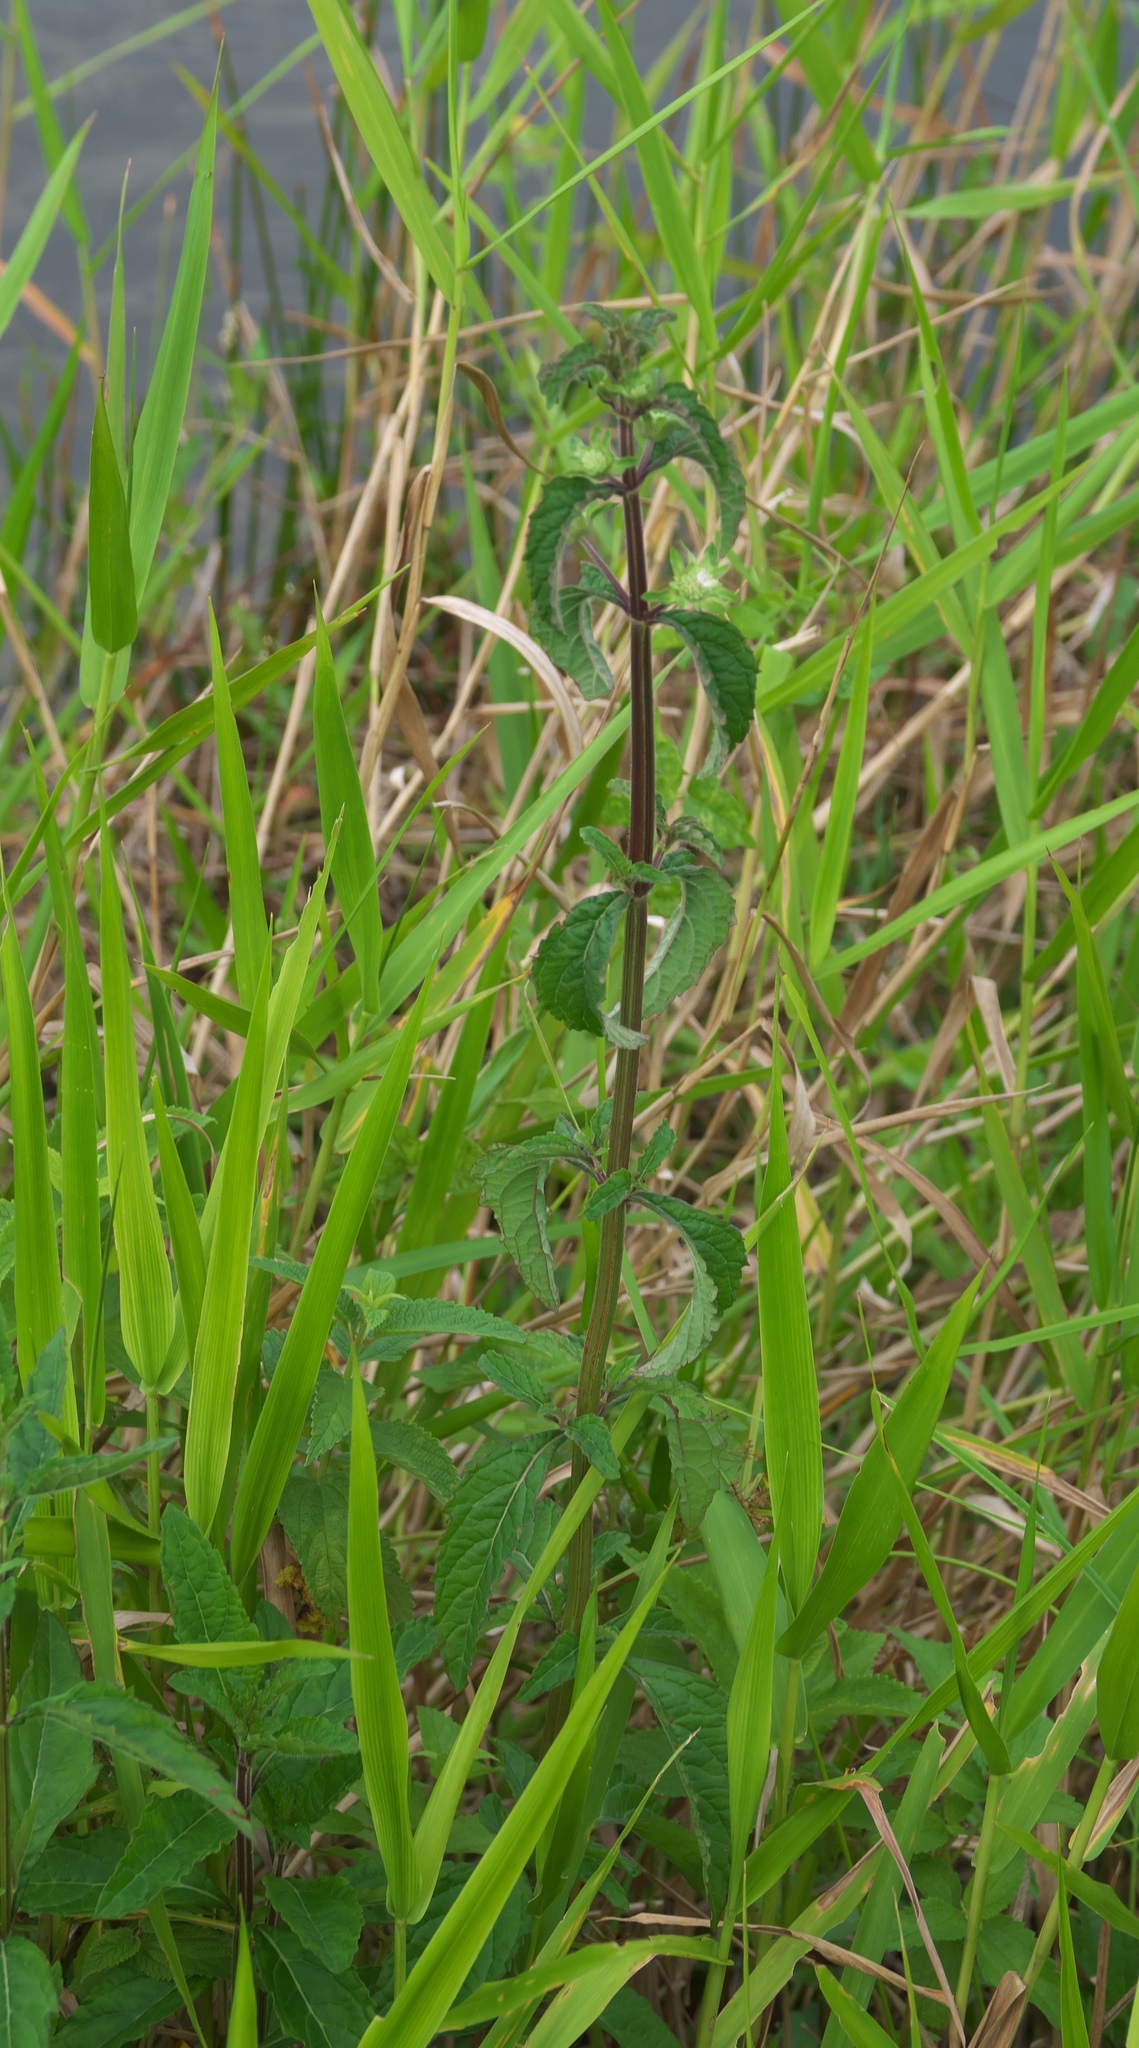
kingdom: Plantae
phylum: Tracheophyta
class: Magnoliopsida
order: Lamiales
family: Lamiaceae
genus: Hyptis
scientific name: Hyptis alata
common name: Cluster bush-mint
